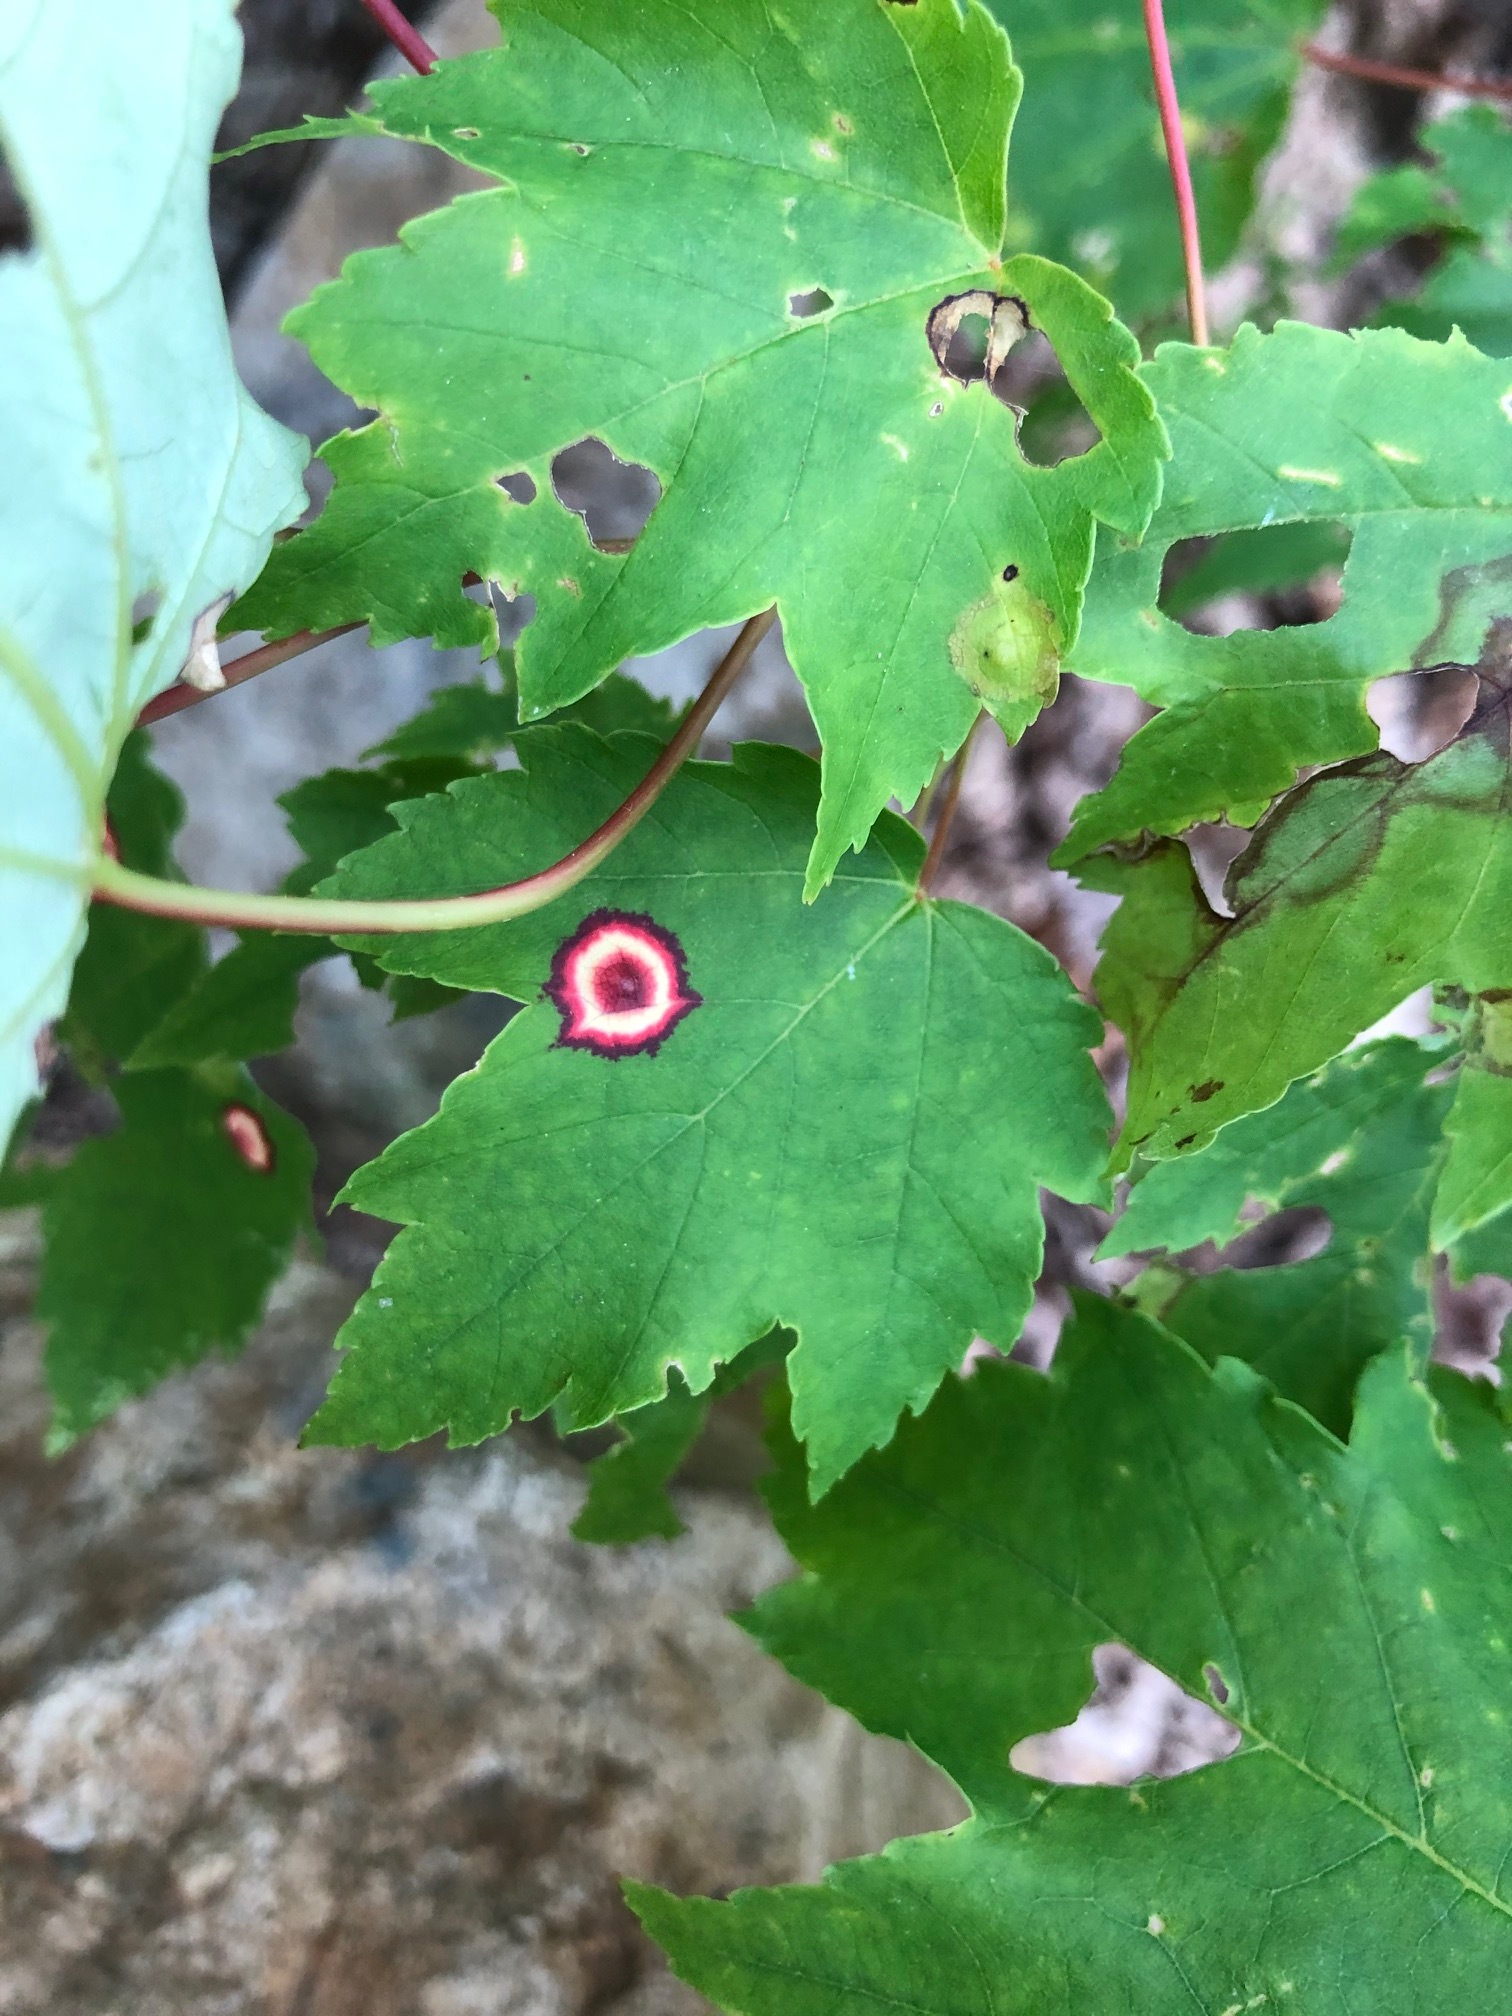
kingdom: Animalia
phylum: Arthropoda
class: Insecta
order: Diptera
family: Cecidomyiidae
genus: Acericecis
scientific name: Acericecis ocellaris
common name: Ocellate gall midge
